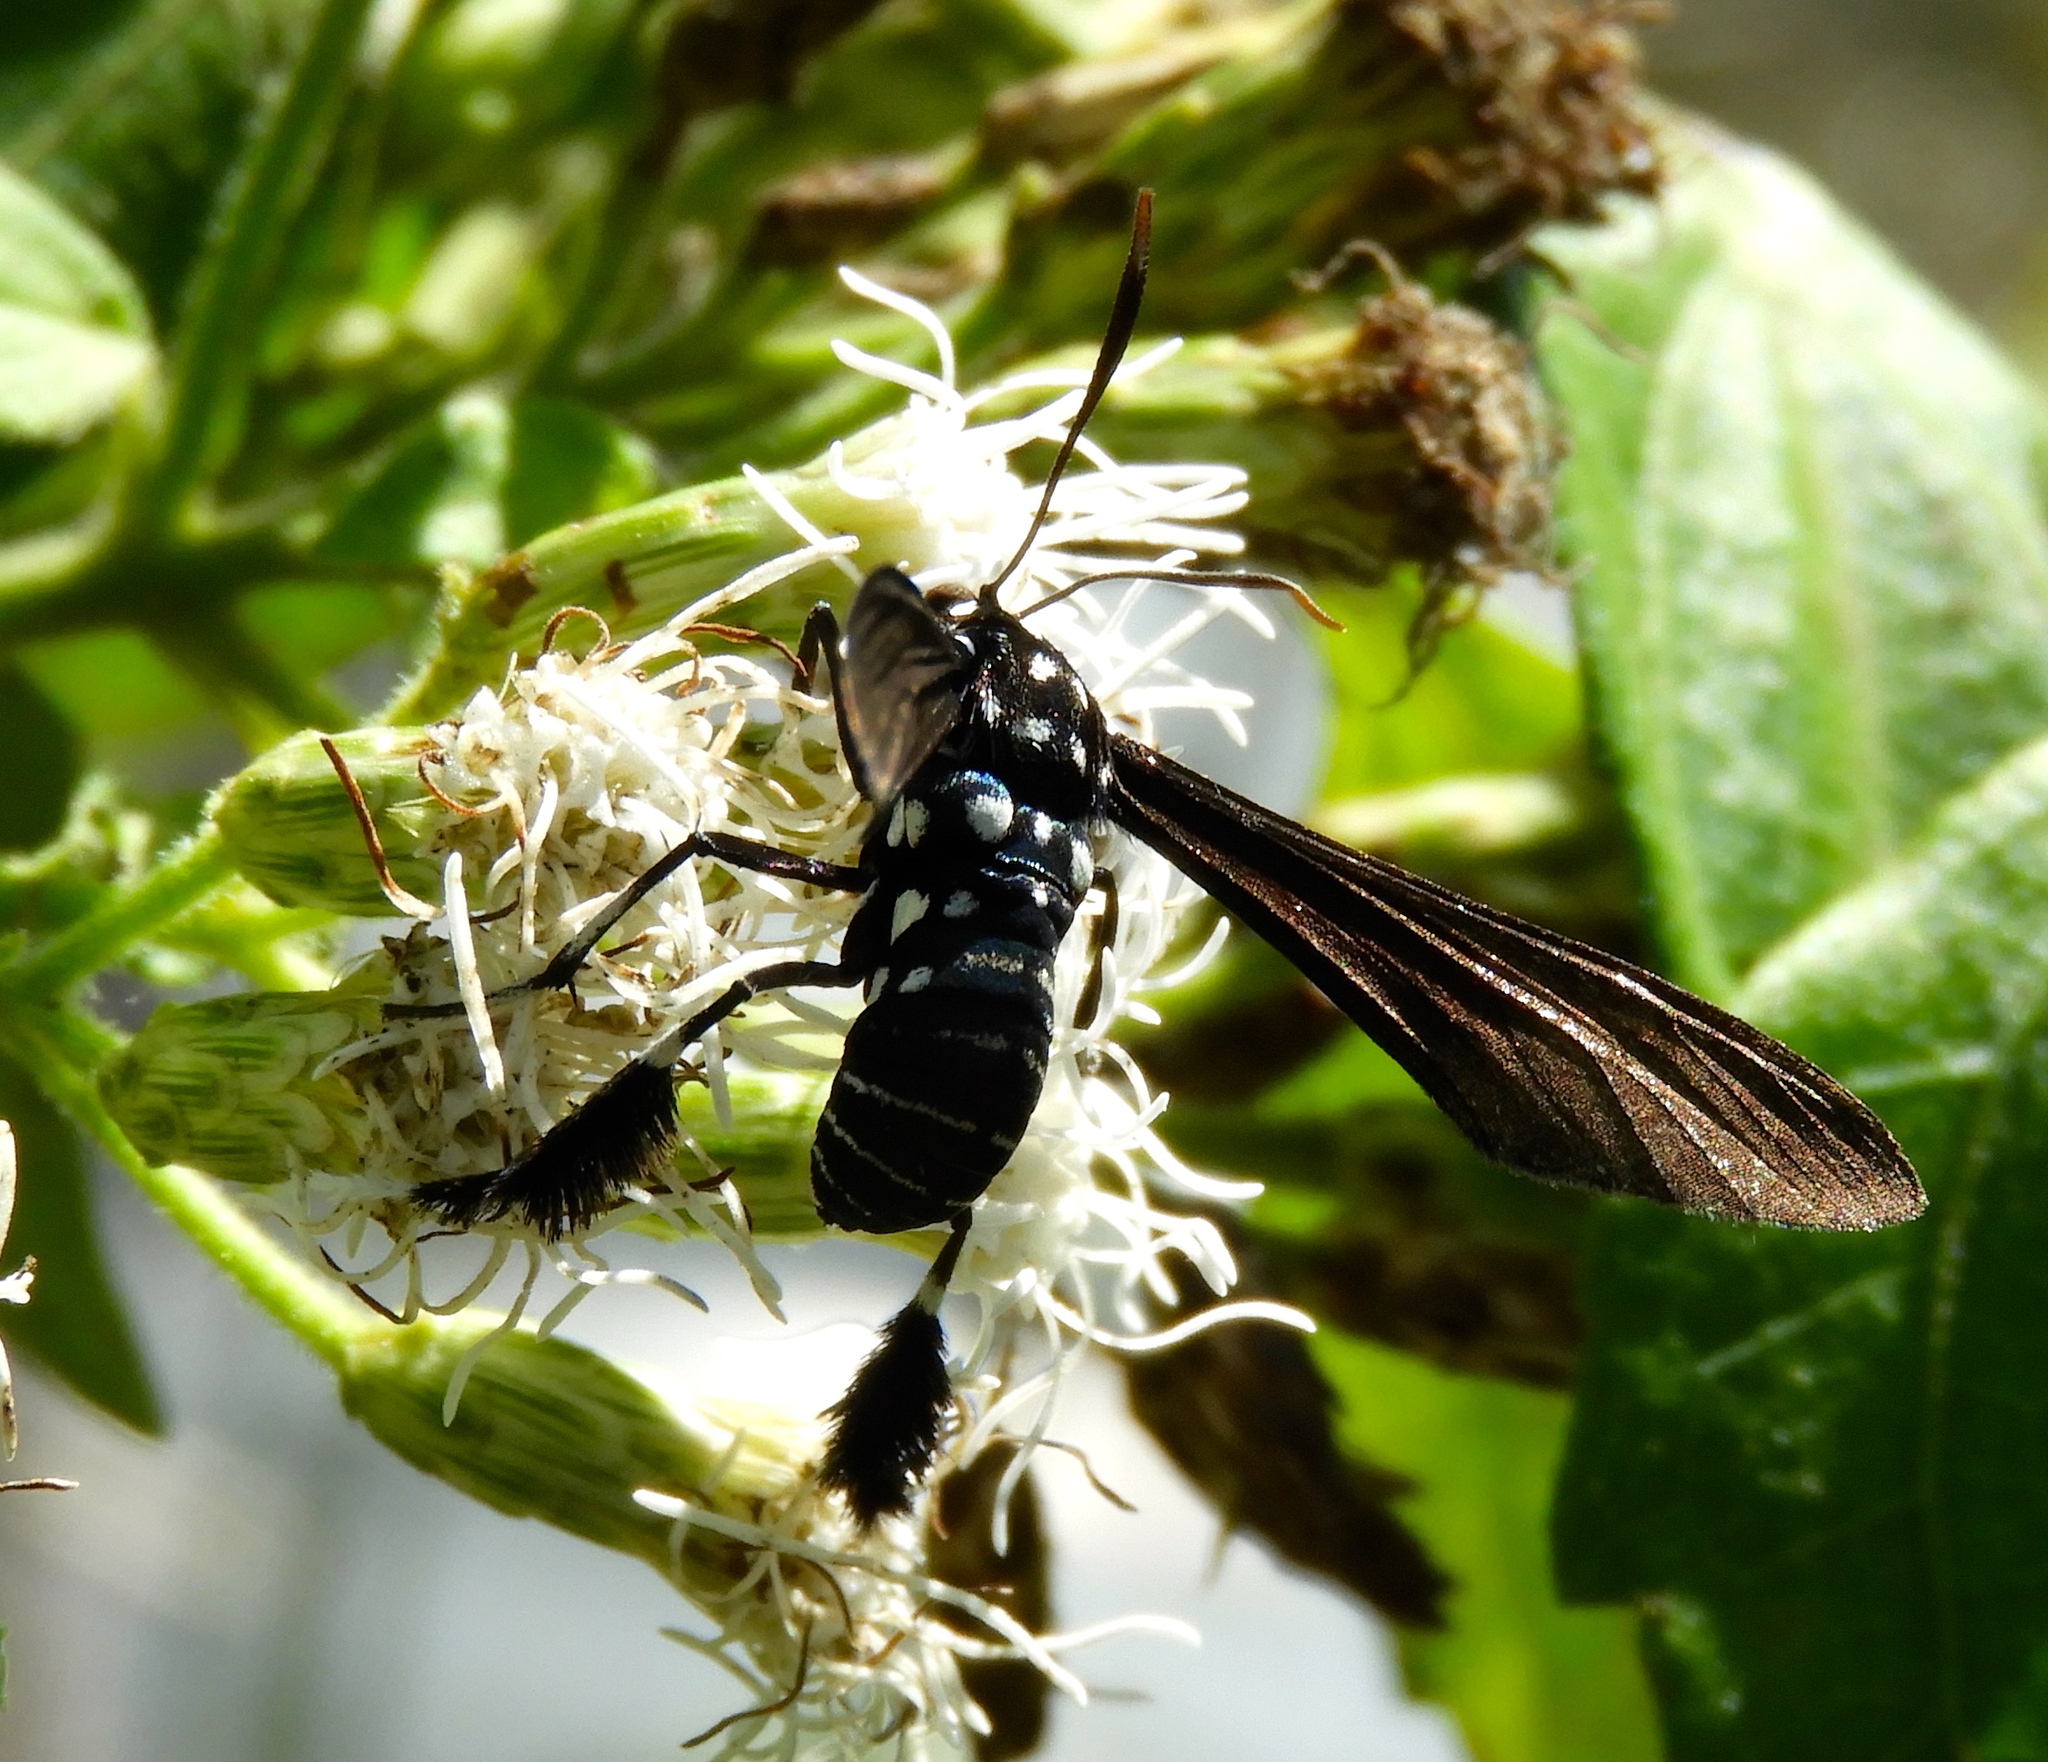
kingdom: Animalia
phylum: Arthropoda
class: Insecta
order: Lepidoptera
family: Erebidae
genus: Horama
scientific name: Horama plumipes
